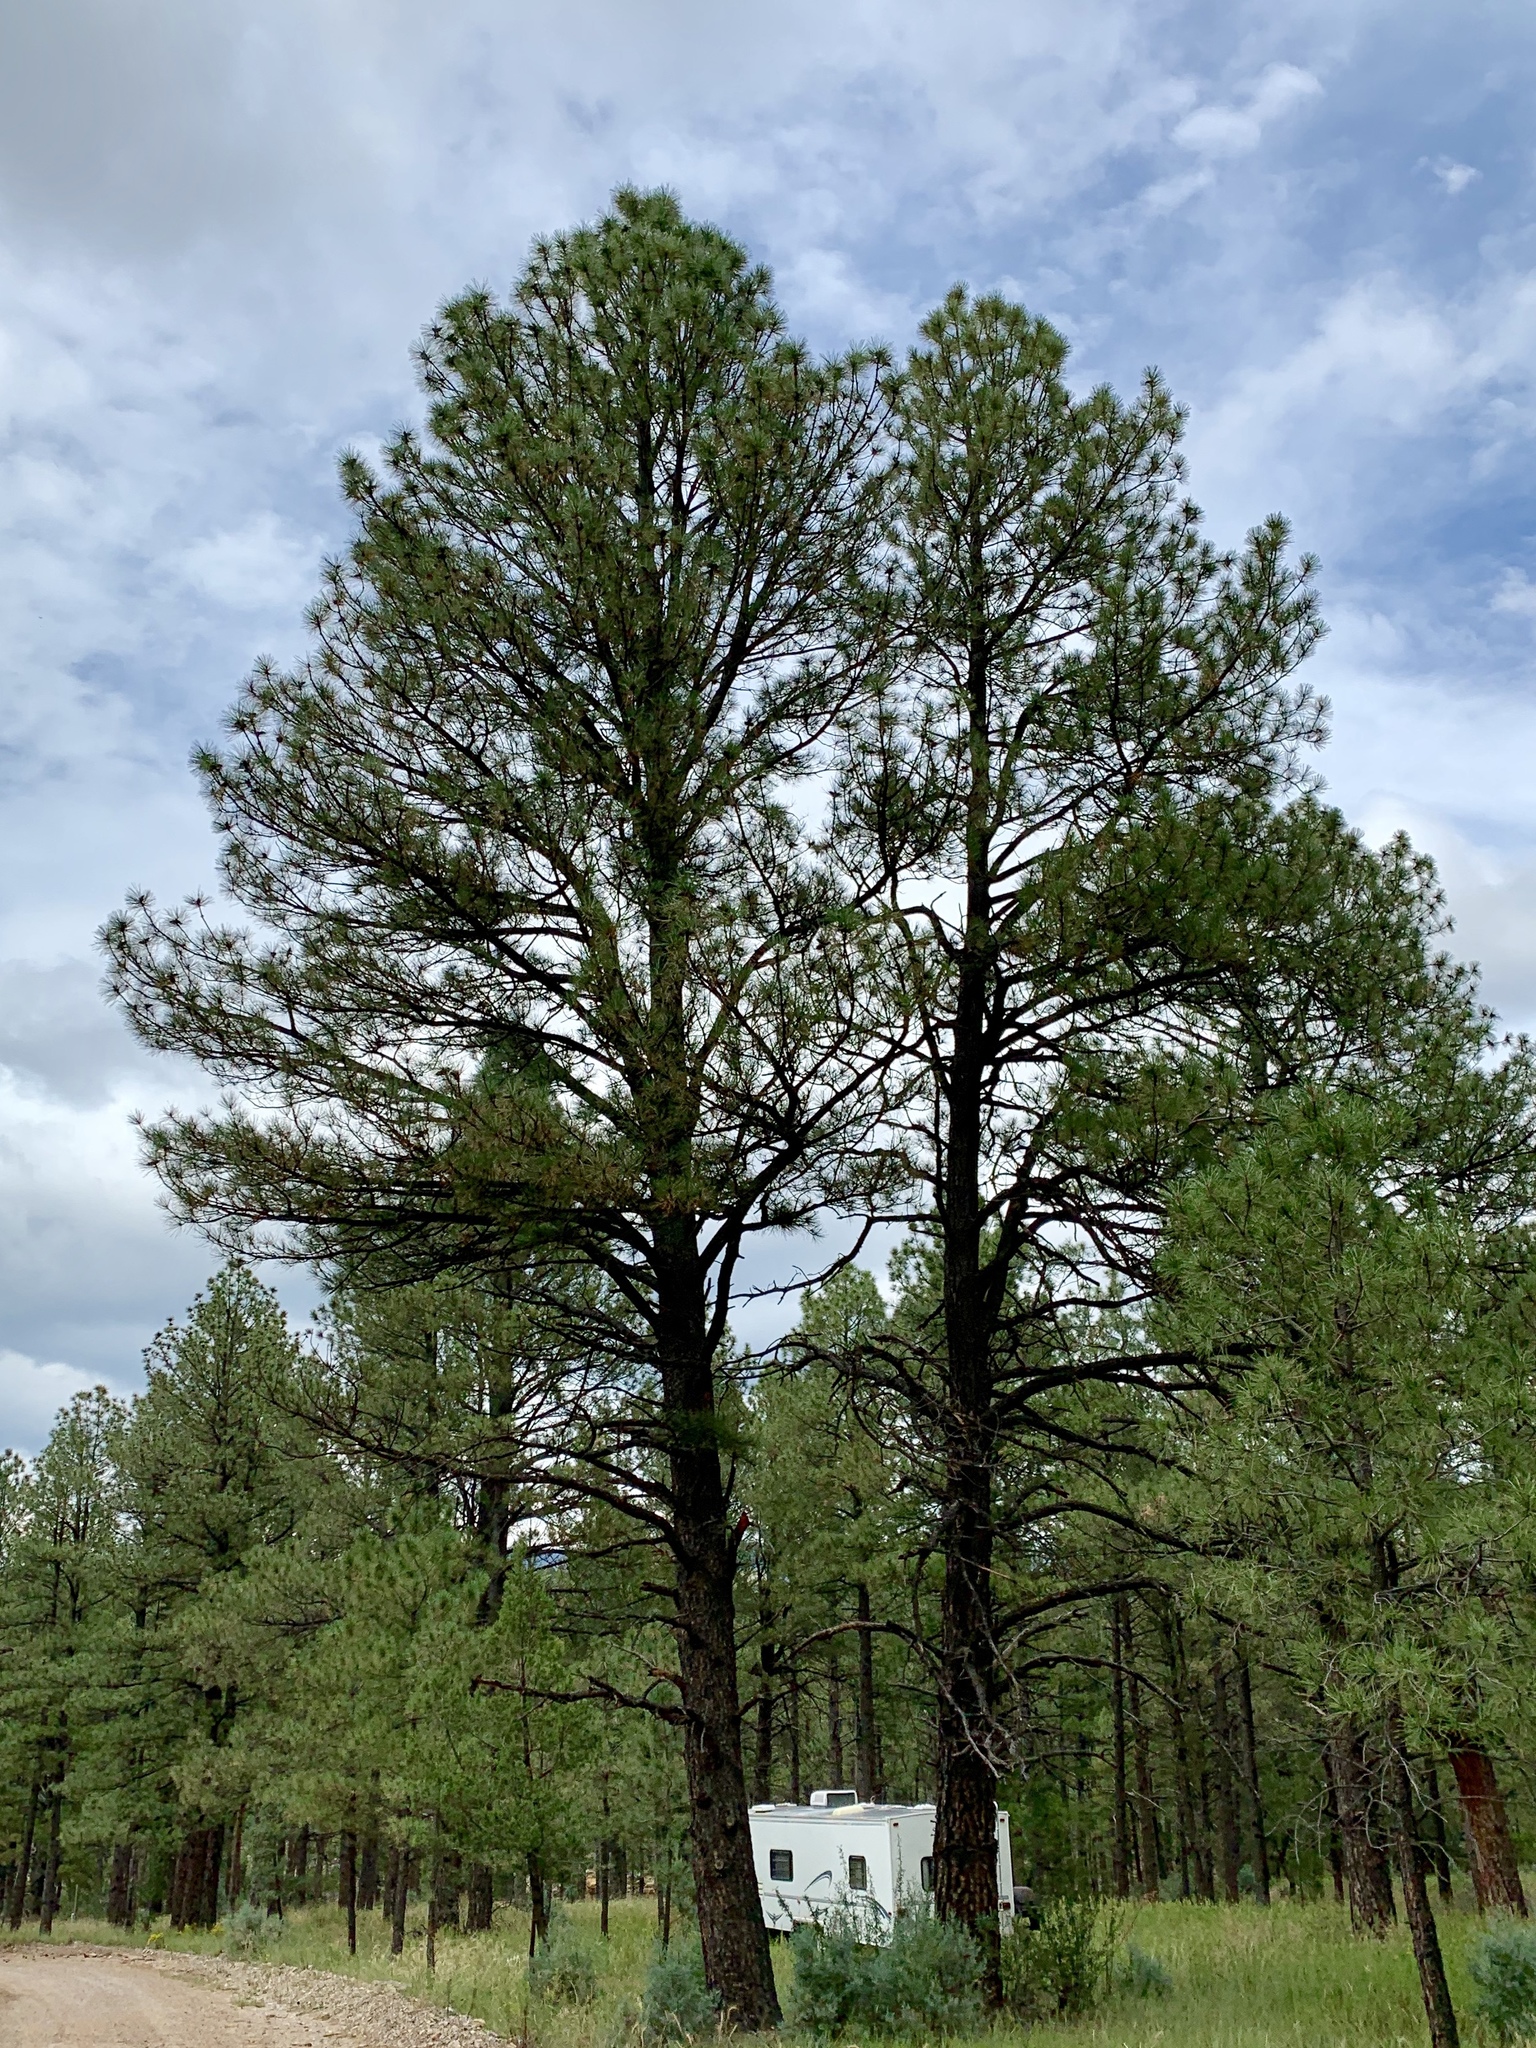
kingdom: Plantae
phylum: Tracheophyta
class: Pinopsida
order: Pinales
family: Pinaceae
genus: Pinus
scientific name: Pinus ponderosa
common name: Western yellow-pine
